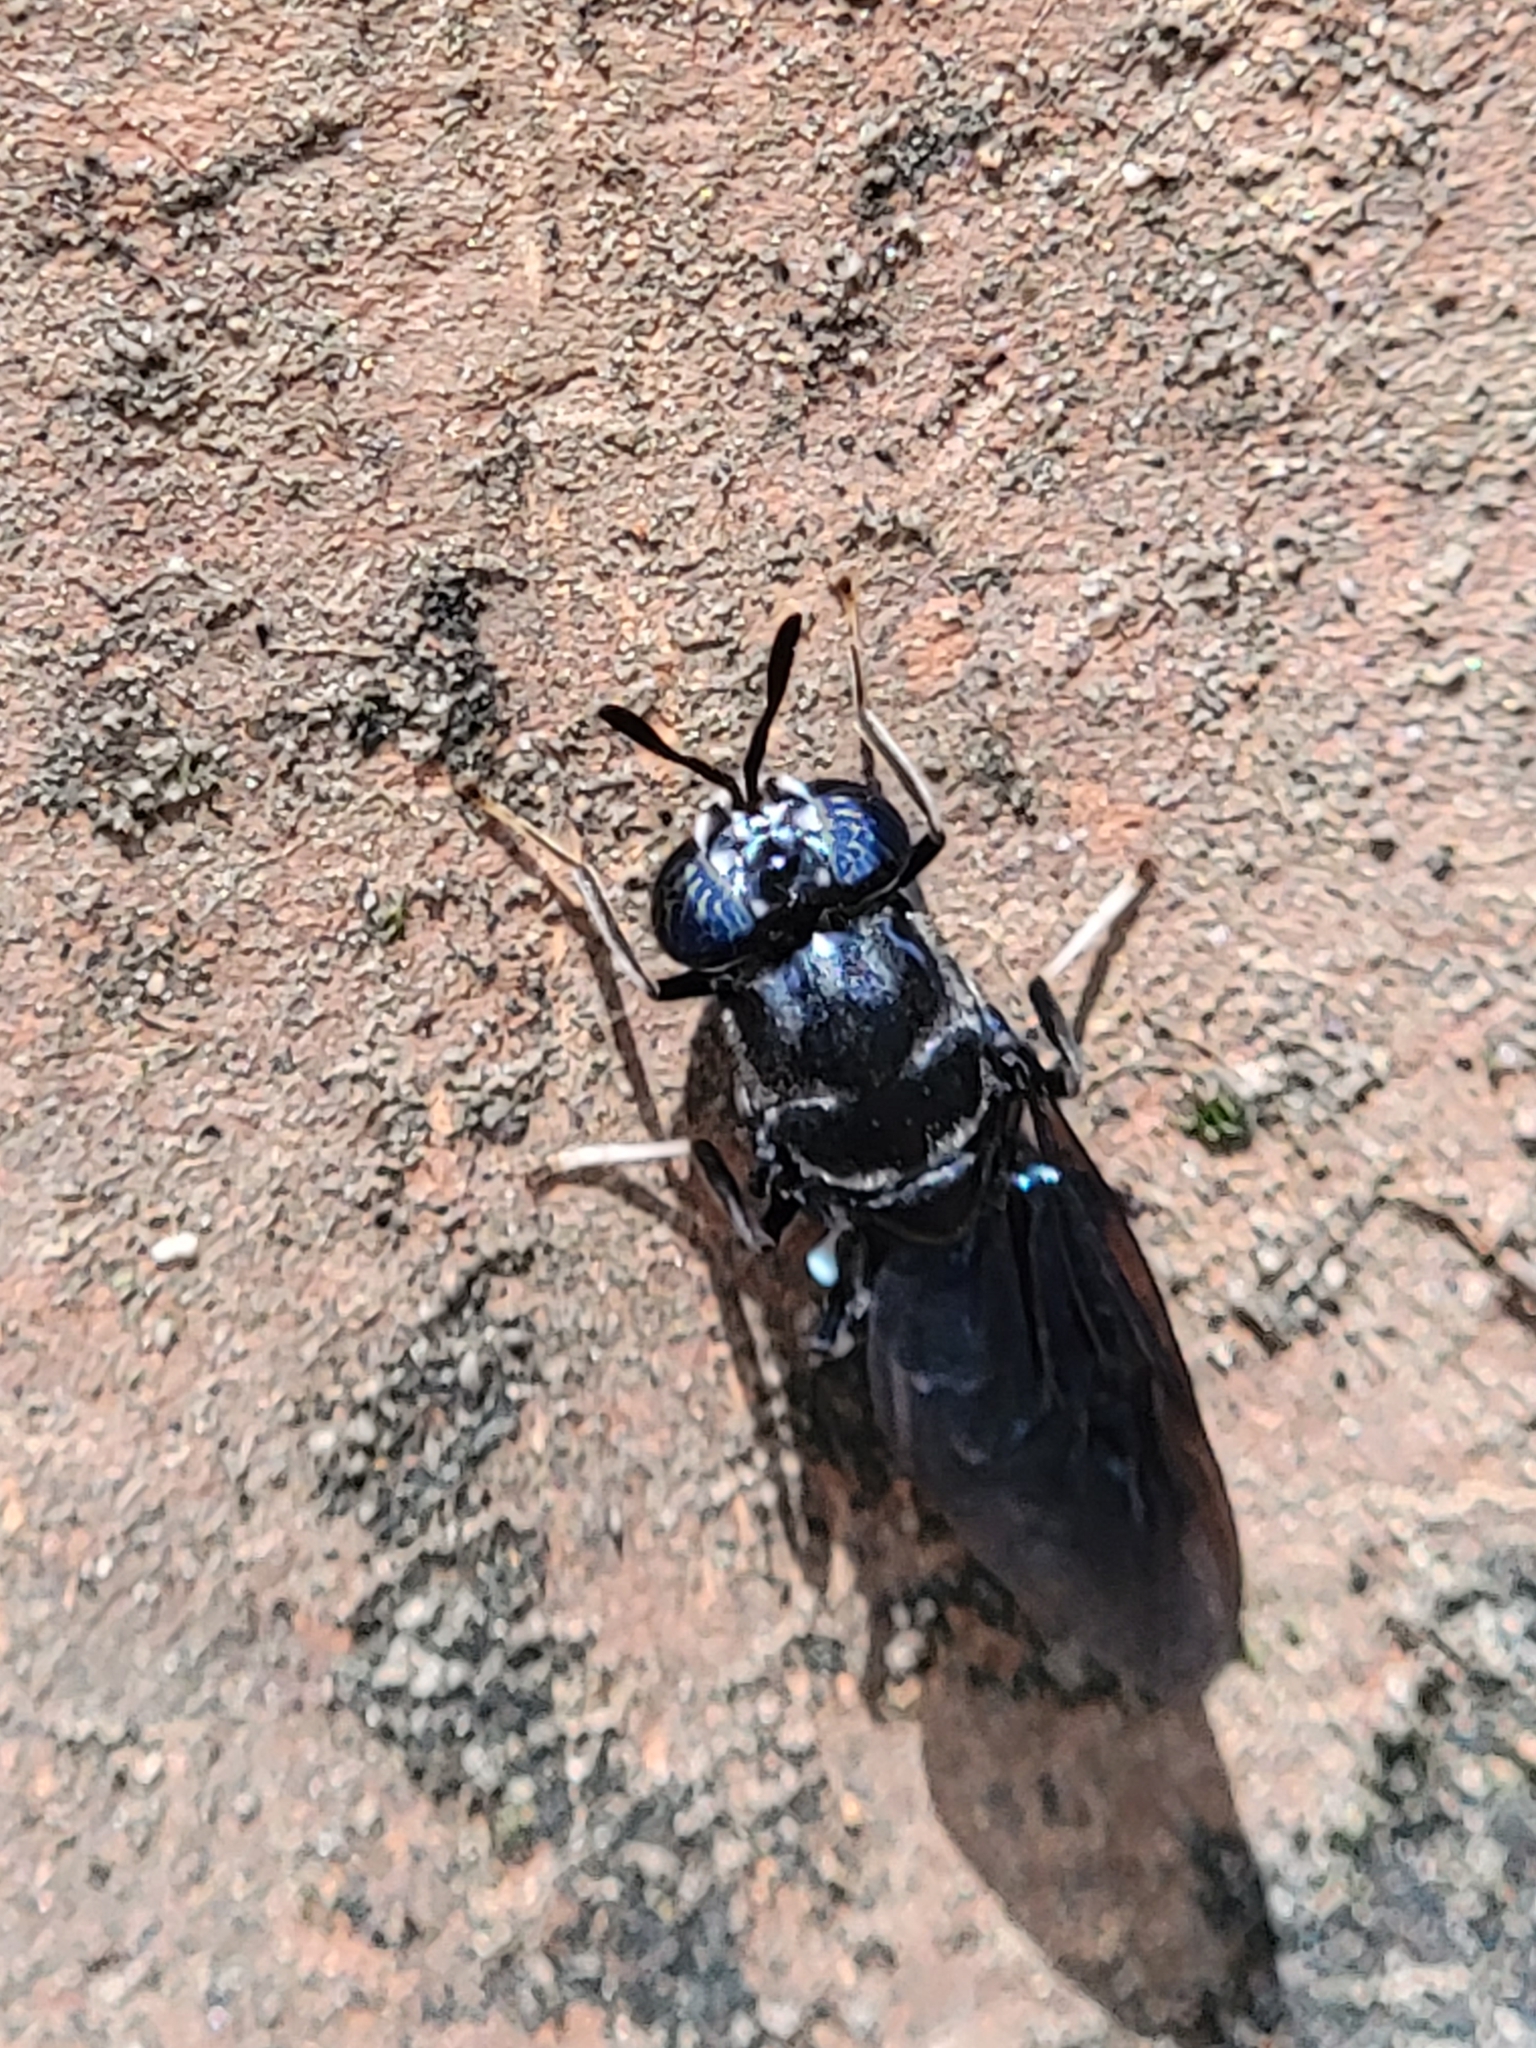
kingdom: Animalia
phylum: Arthropoda
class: Insecta
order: Diptera
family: Stratiomyidae
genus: Hermetia
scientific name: Hermetia illucens
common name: Black soldier fly
